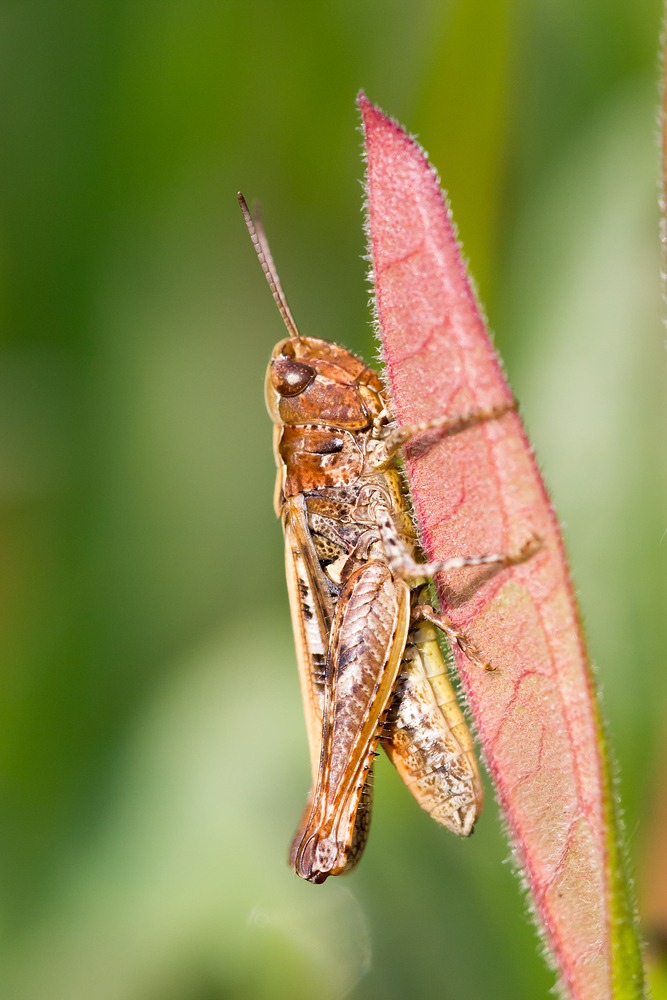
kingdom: Animalia
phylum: Arthropoda
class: Insecta
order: Orthoptera
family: Acrididae
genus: Myrmeleotettix
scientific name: Myrmeleotettix maculatus
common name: Mottled grasshopper
